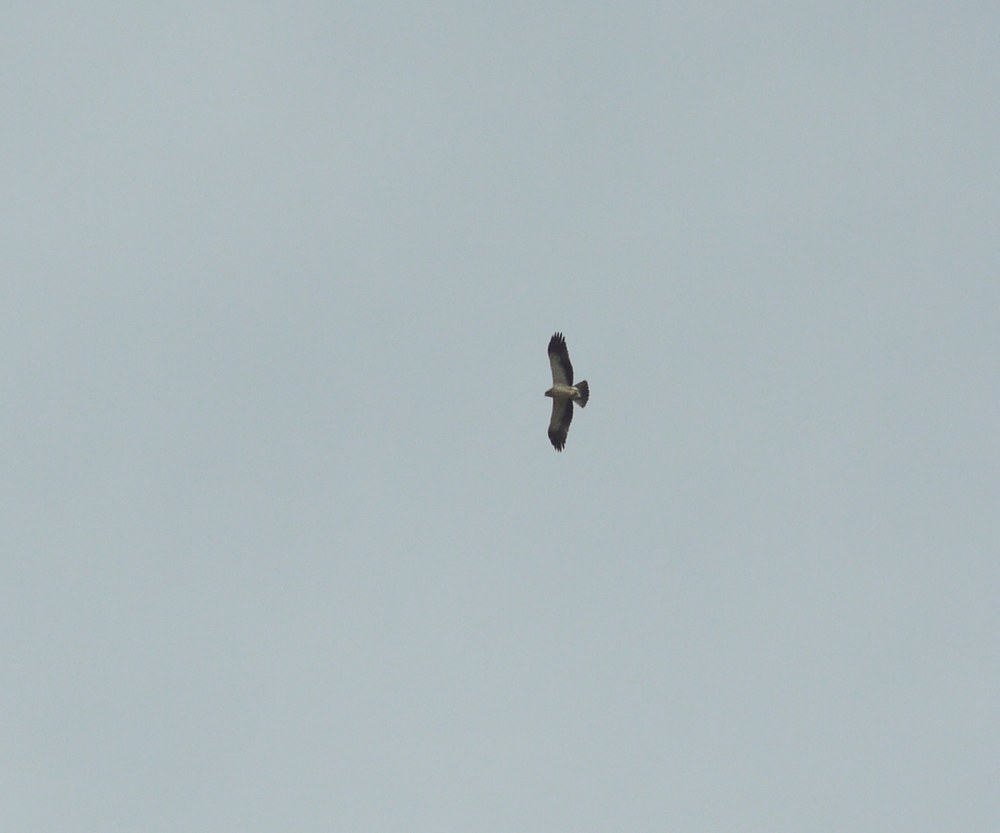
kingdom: Animalia
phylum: Chordata
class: Aves
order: Accipitriformes
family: Accipitridae
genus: Hieraaetus
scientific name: Hieraaetus pennatus
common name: Booted eagle
